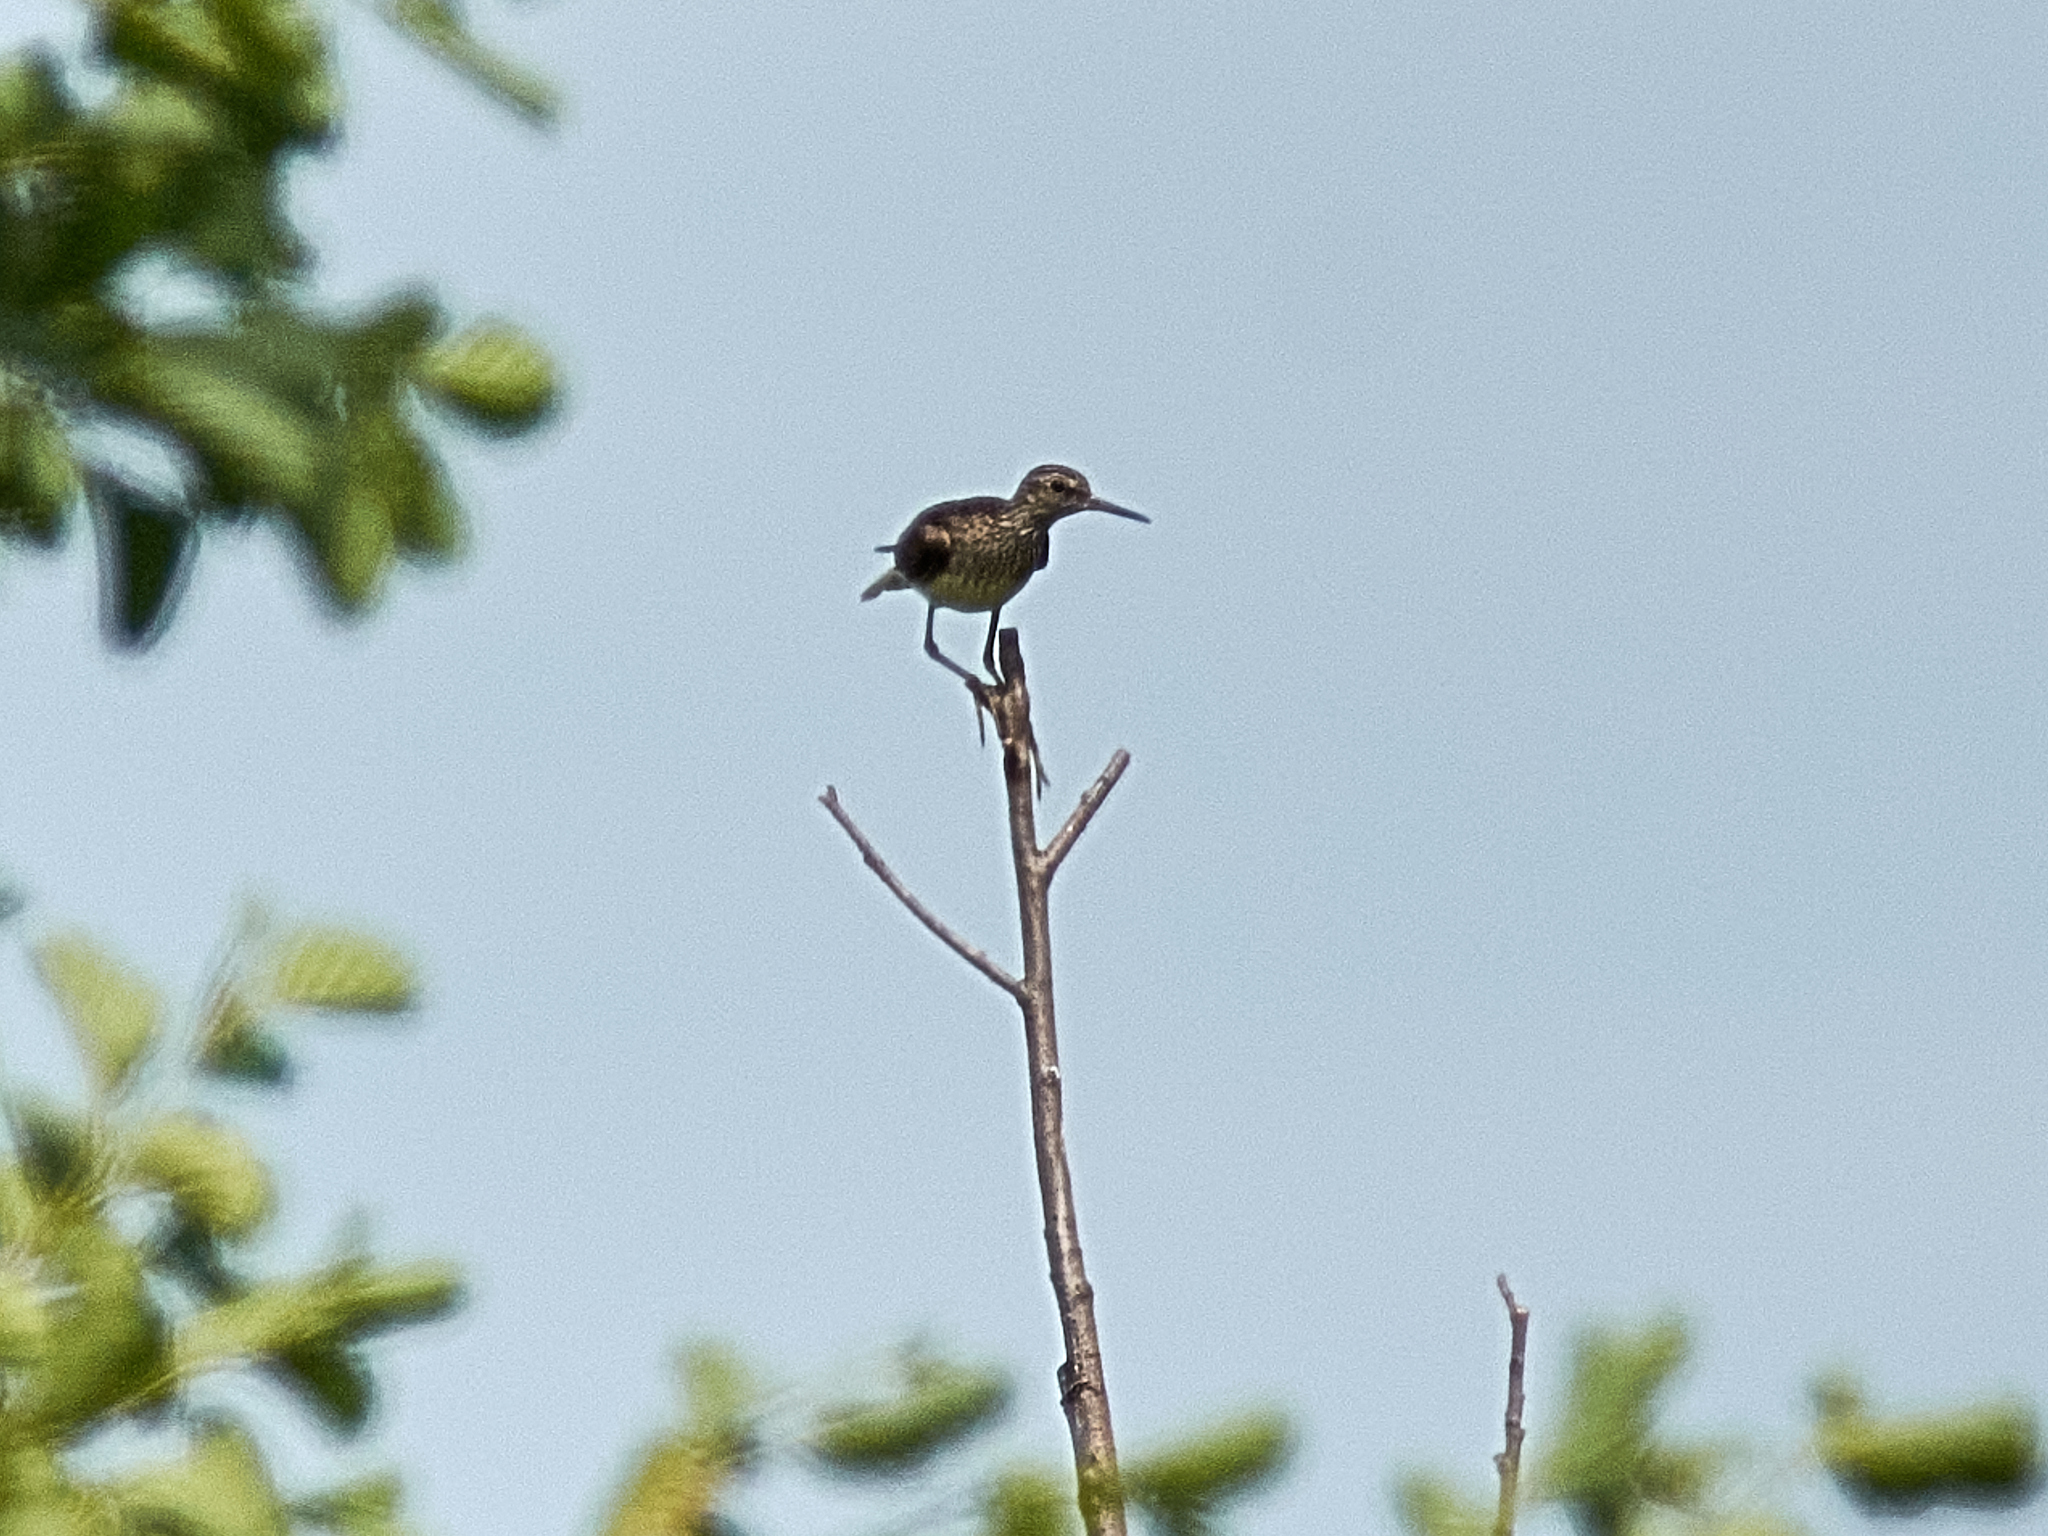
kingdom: Animalia
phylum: Chordata
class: Aves
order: Charadriiformes
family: Scolopacidae
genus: Tringa
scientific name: Tringa glareola
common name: Wood sandpiper
